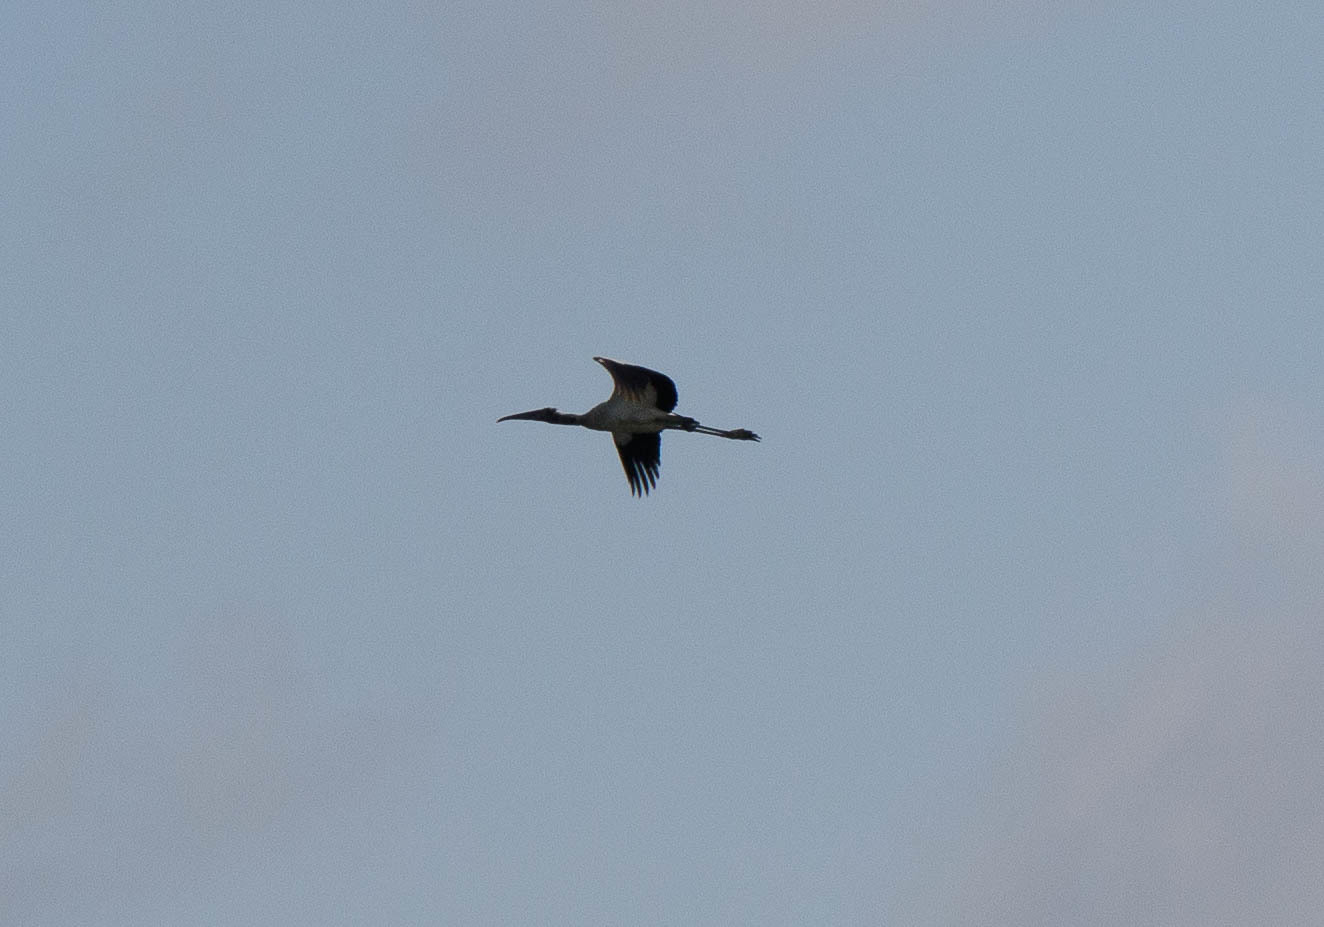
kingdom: Animalia
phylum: Chordata
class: Aves
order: Ciconiiformes
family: Ciconiidae
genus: Mycteria
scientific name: Mycteria americana
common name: Wood stork
